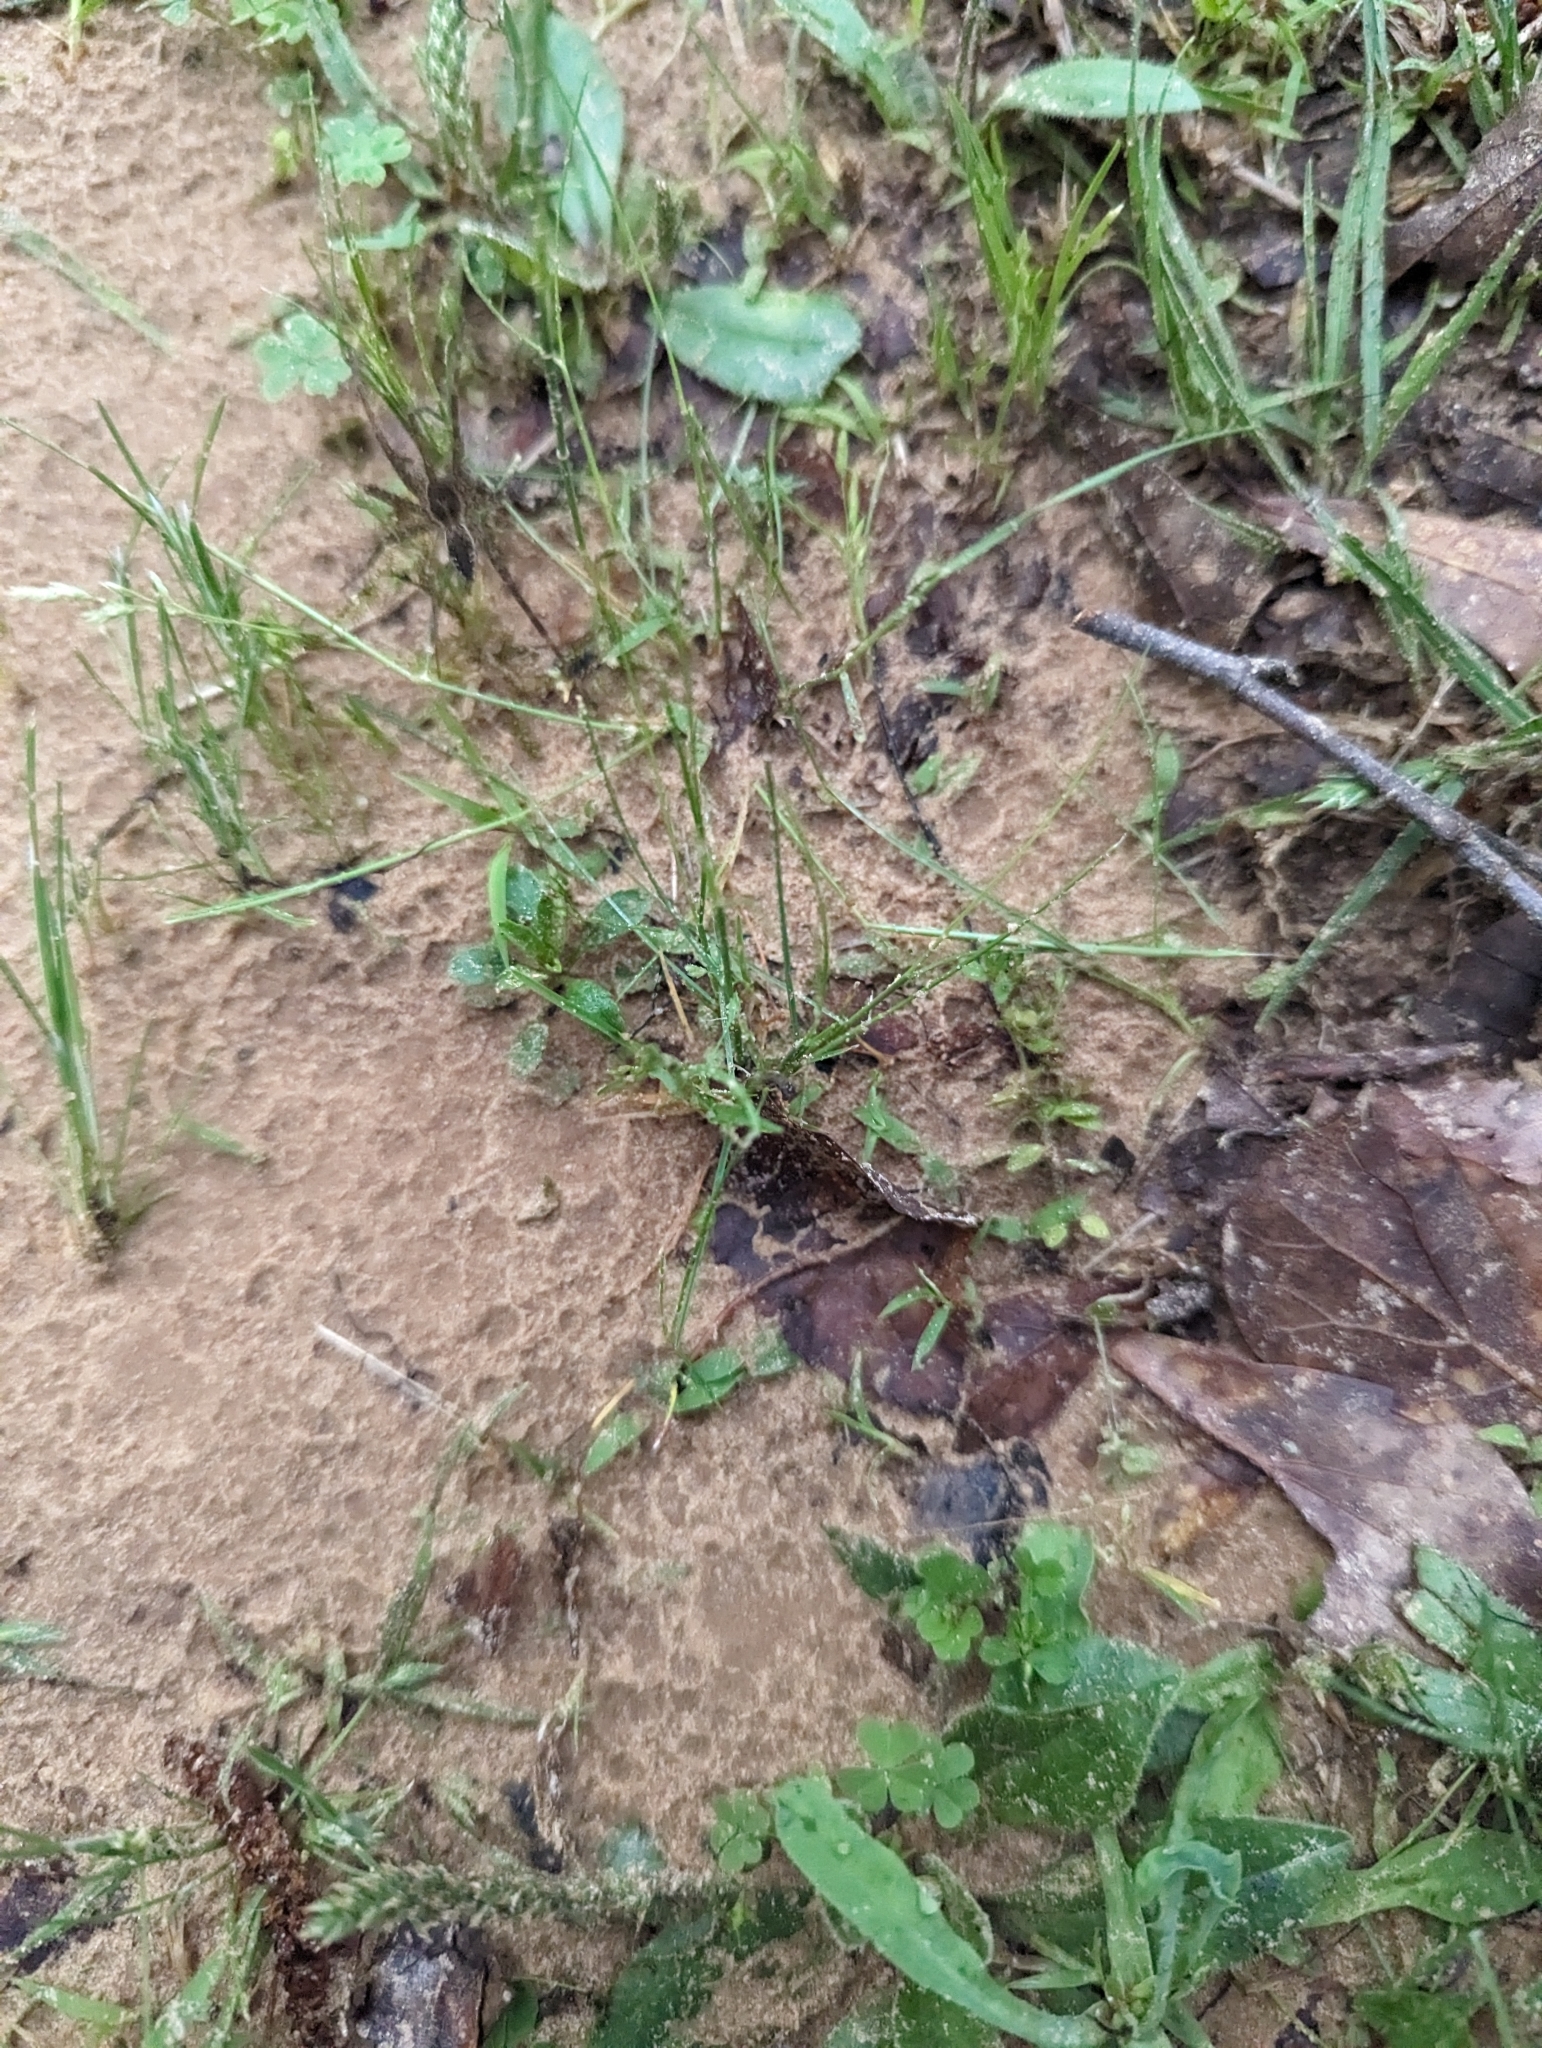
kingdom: Animalia
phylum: Arthropoda
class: Arachnida
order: Araneae
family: Pisauridae
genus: Dolomedes
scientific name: Dolomedes vittatus
